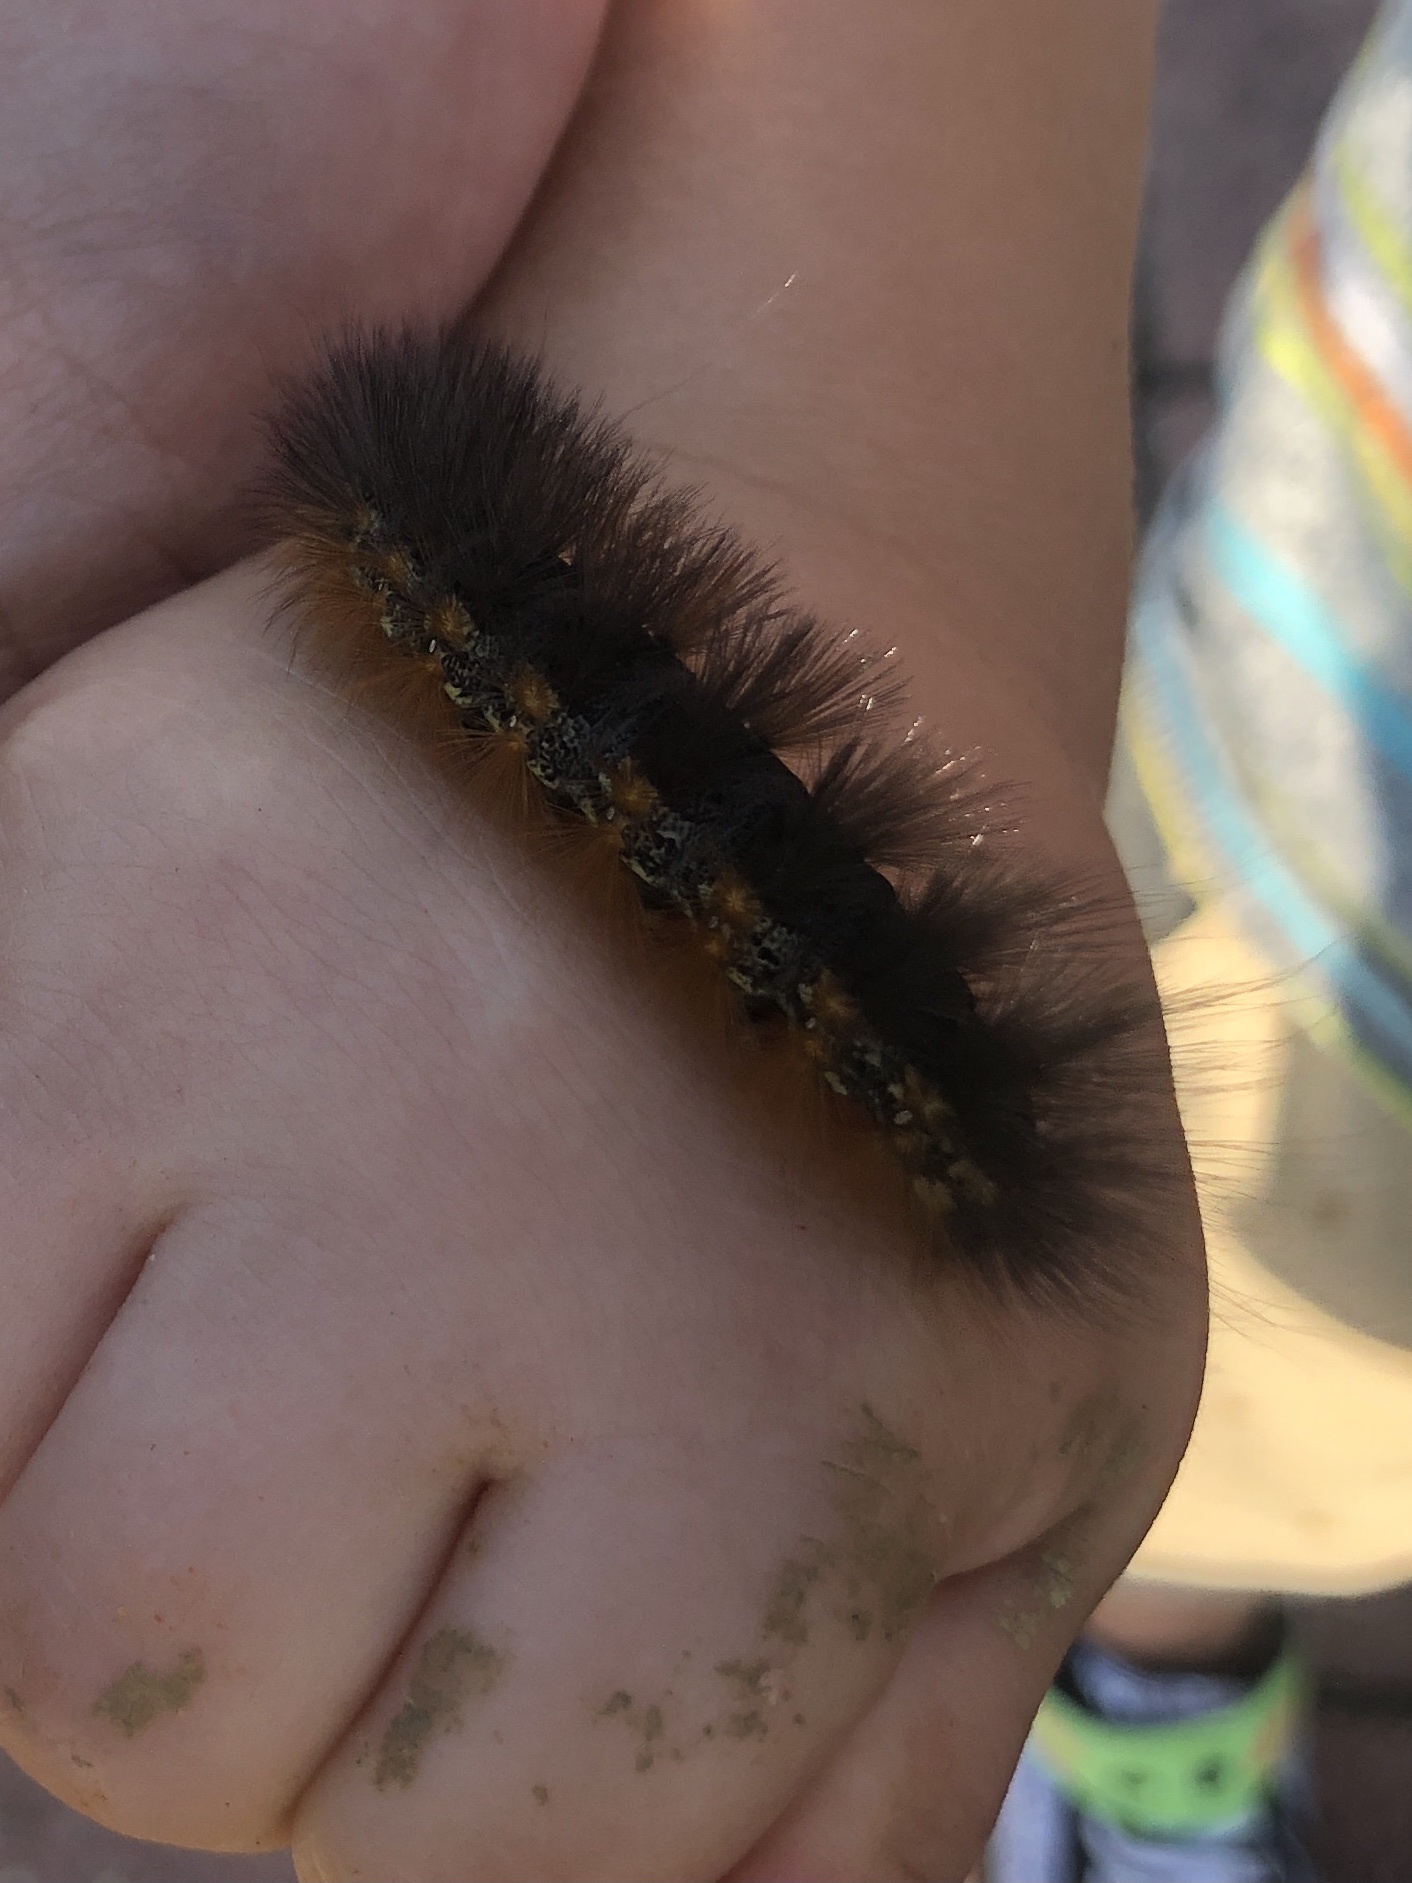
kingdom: Animalia
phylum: Arthropoda
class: Insecta
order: Lepidoptera
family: Erebidae
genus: Estigmene
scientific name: Estigmene acrea
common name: Salt marsh moth
